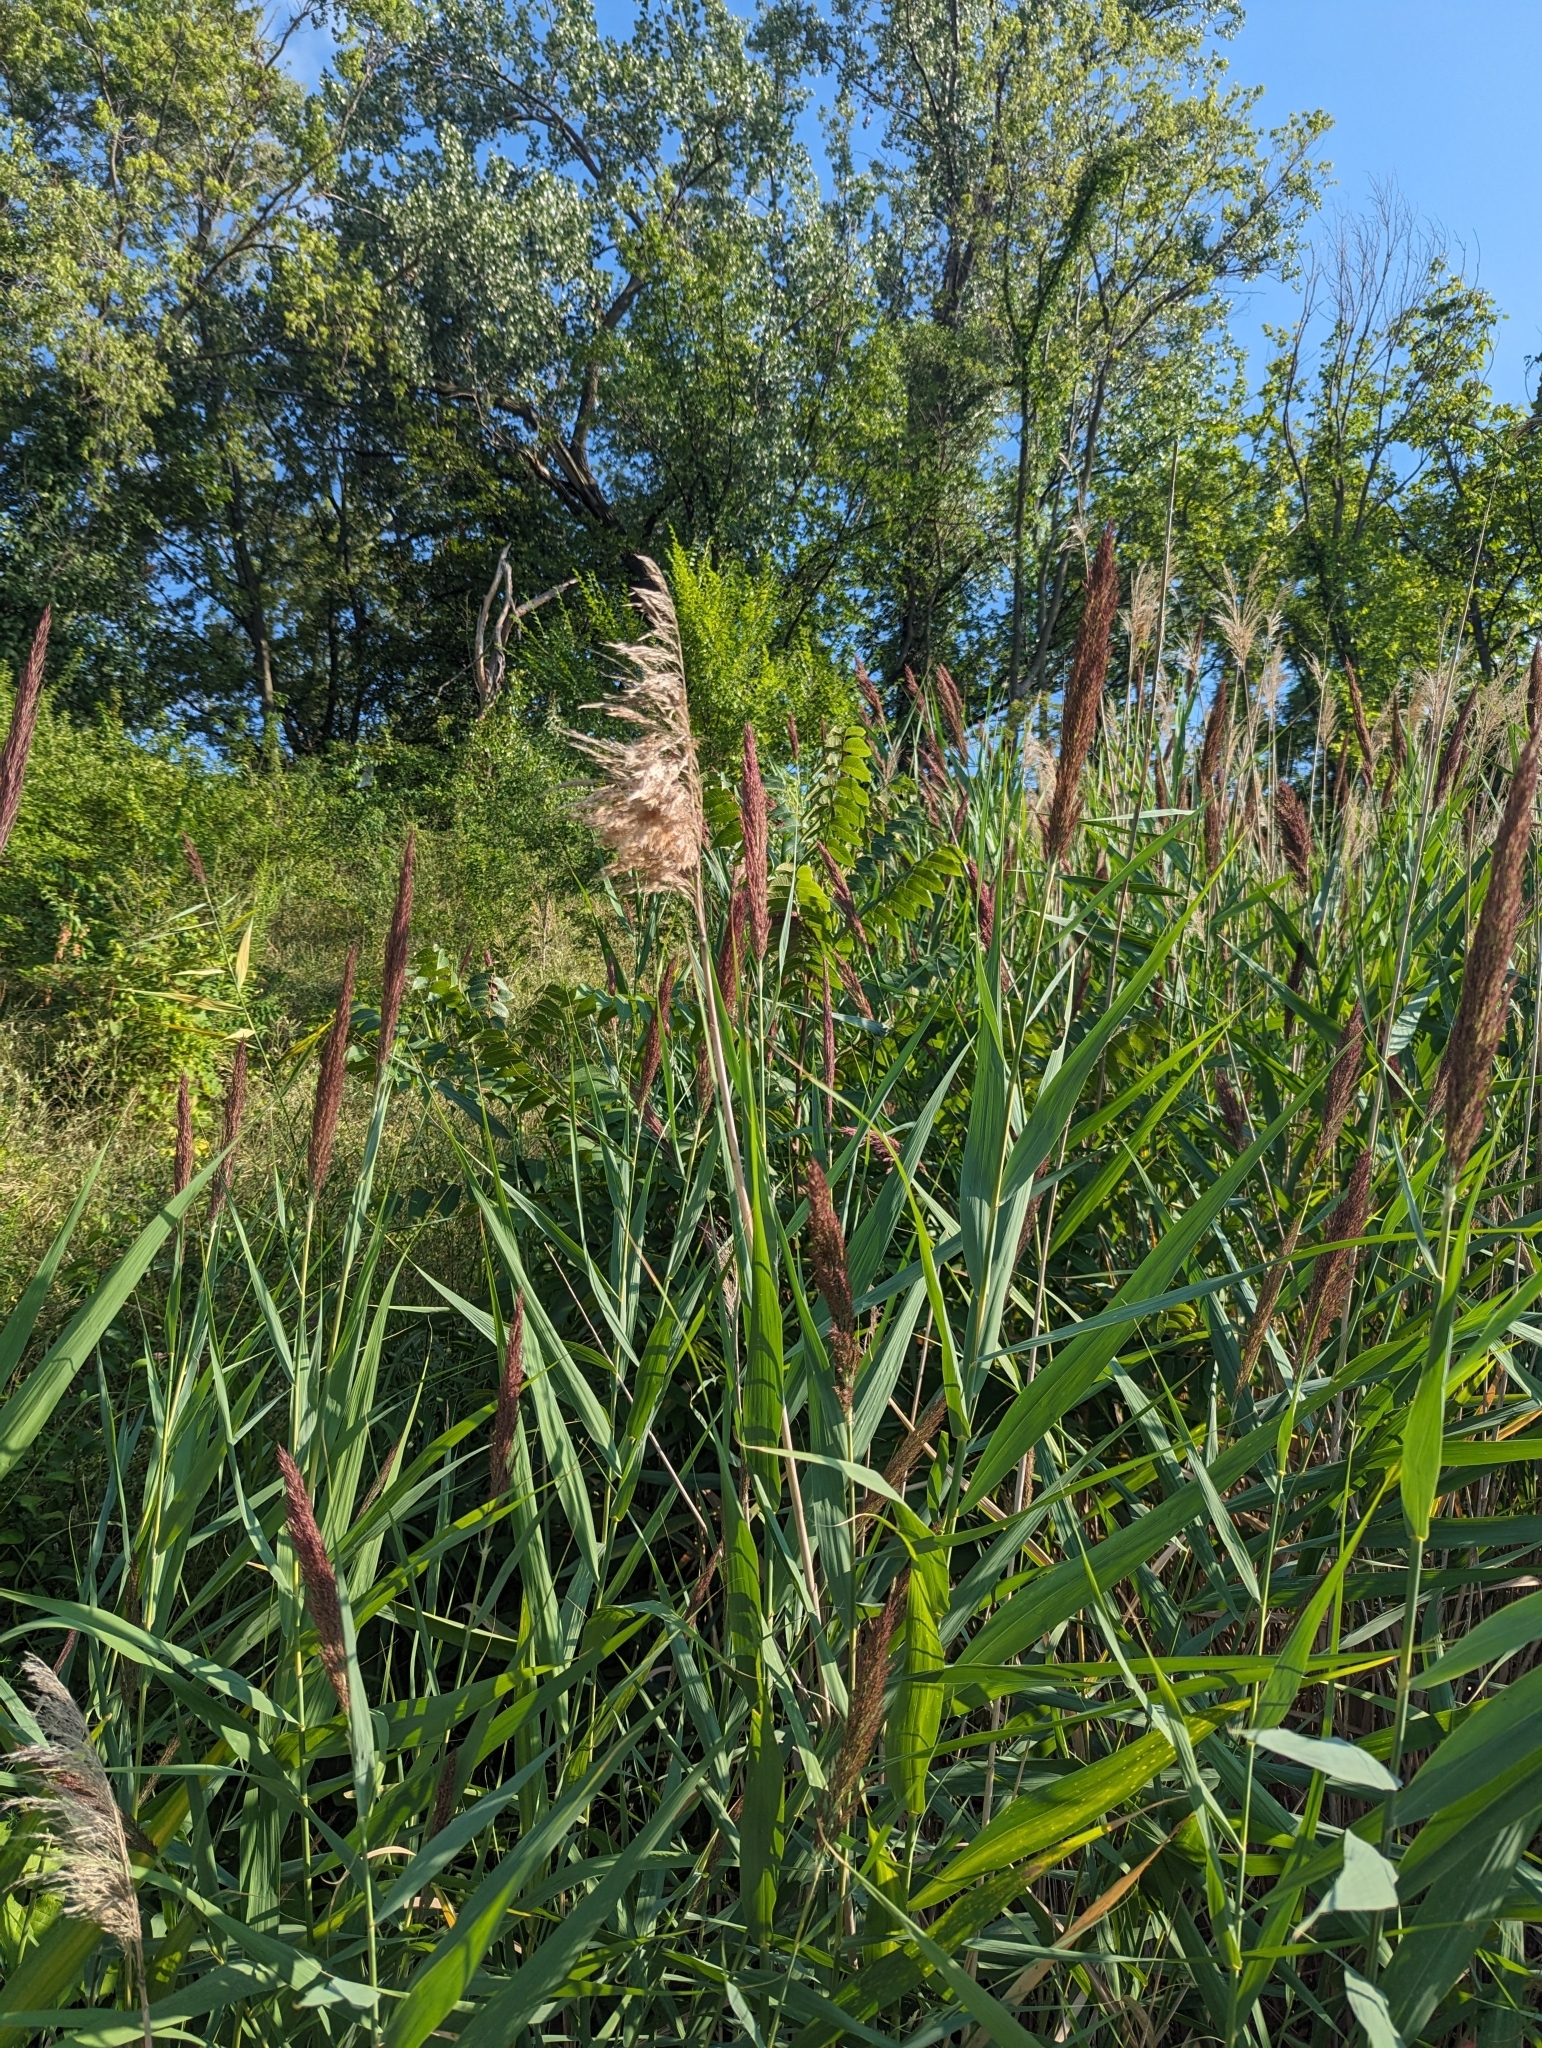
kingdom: Plantae
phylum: Tracheophyta
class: Liliopsida
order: Poales
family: Poaceae
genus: Phragmites
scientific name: Phragmites australis
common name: Common reed
